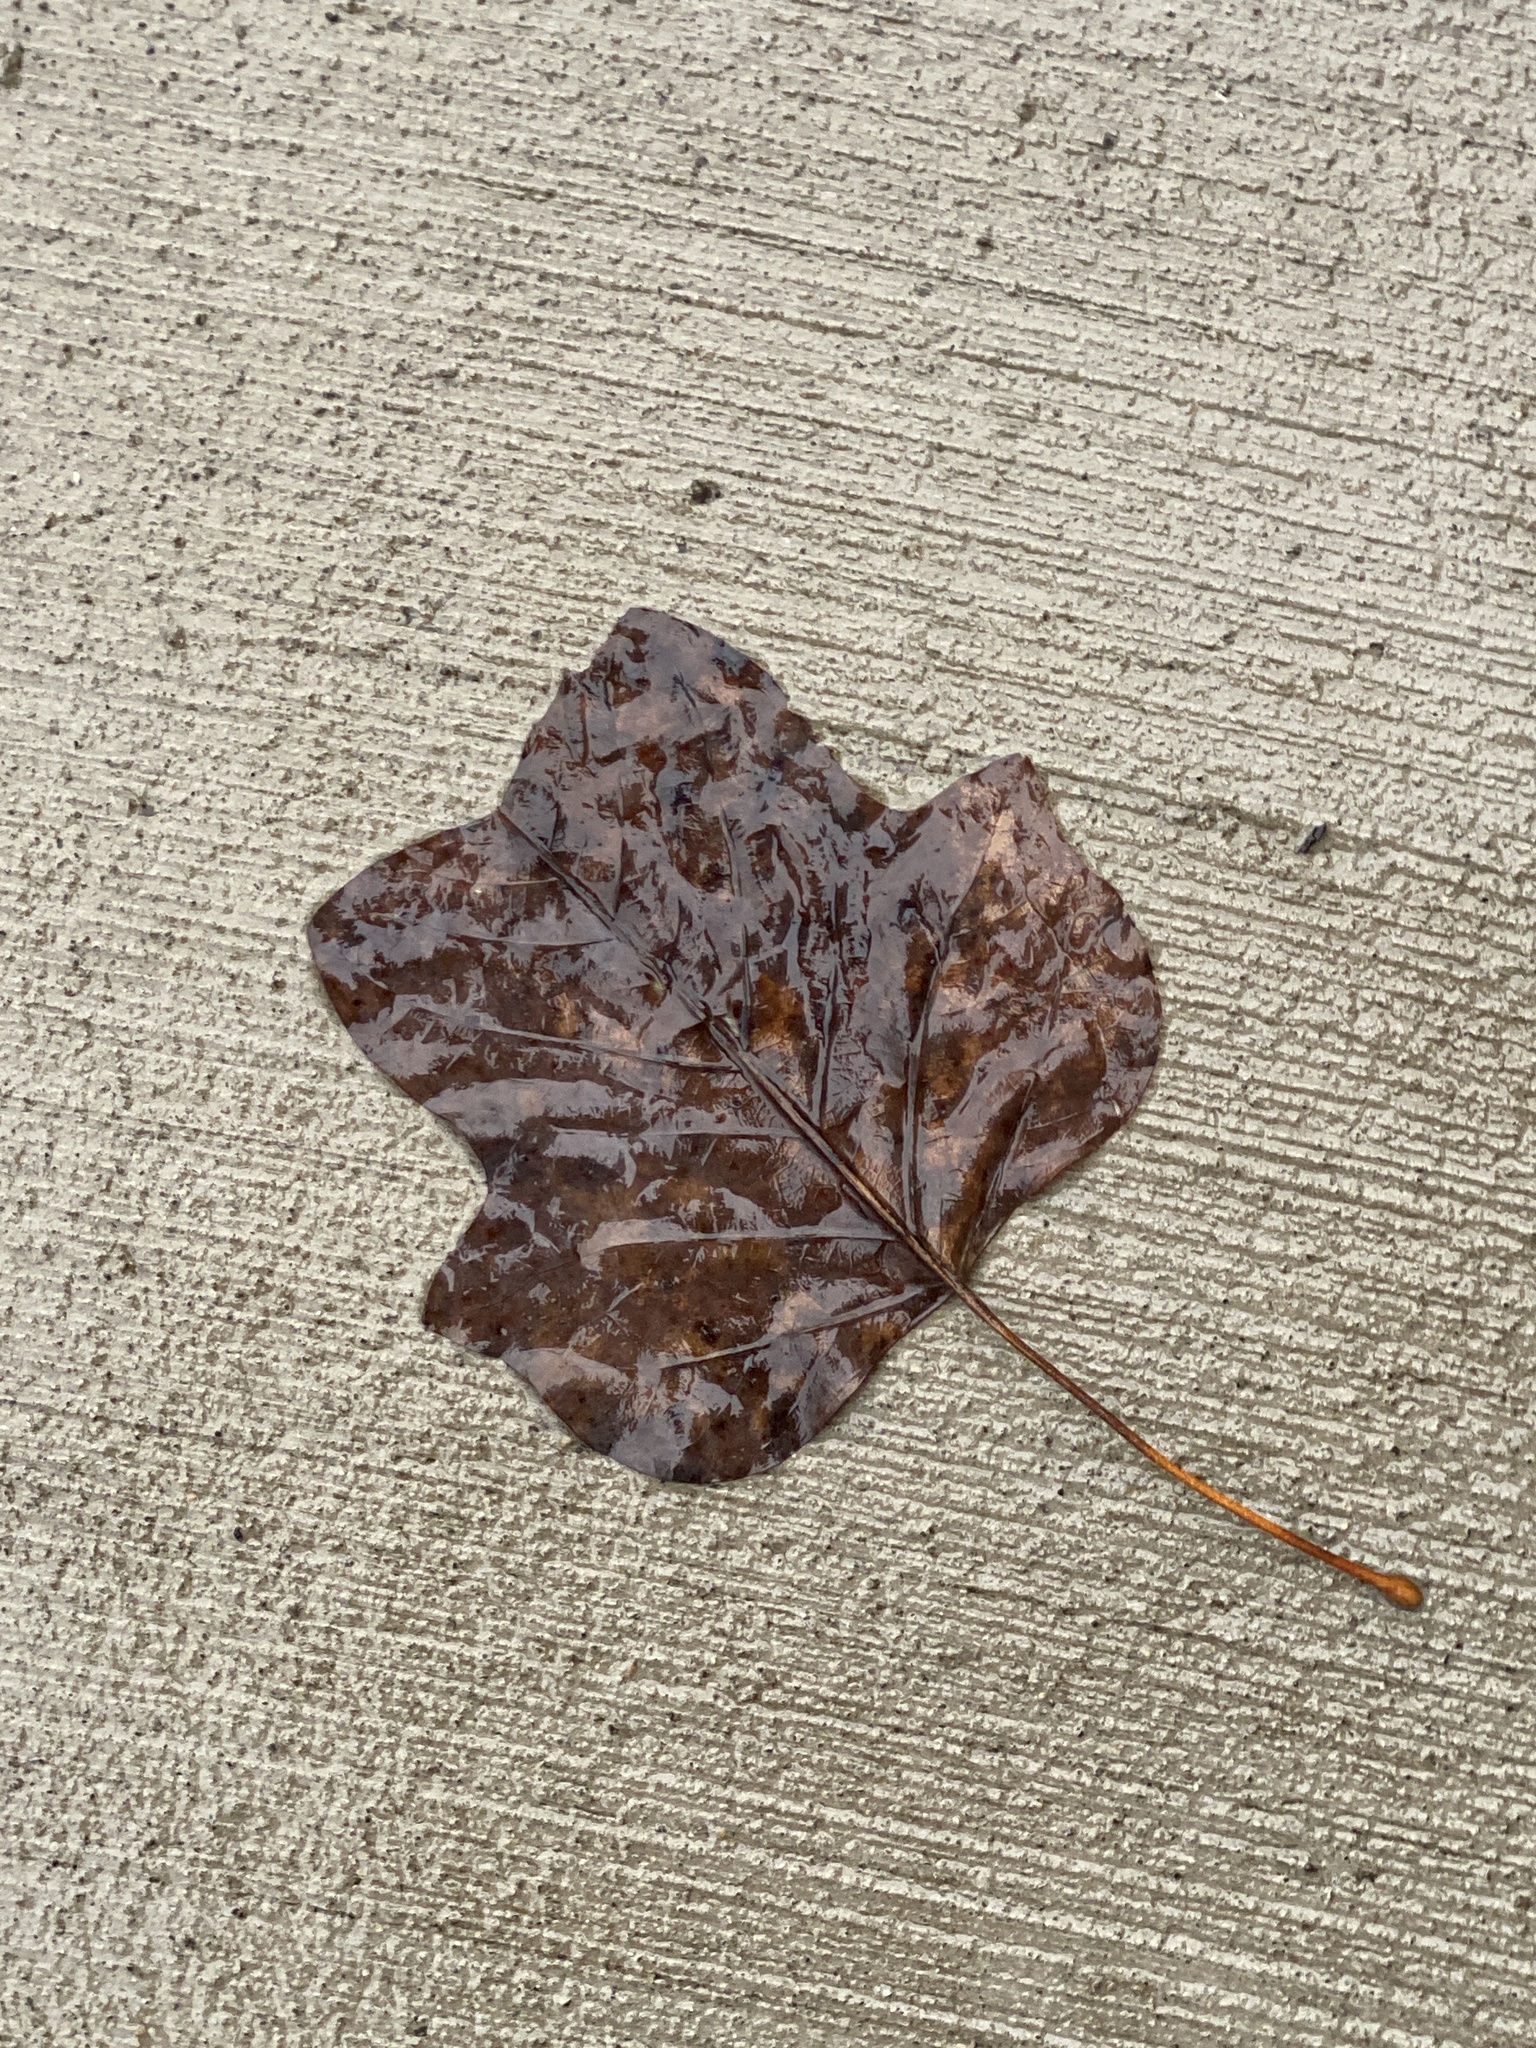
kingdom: Plantae
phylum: Tracheophyta
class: Magnoliopsida
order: Magnoliales
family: Magnoliaceae
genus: Liriodendron
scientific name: Liriodendron tulipifera
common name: Tulip tree
